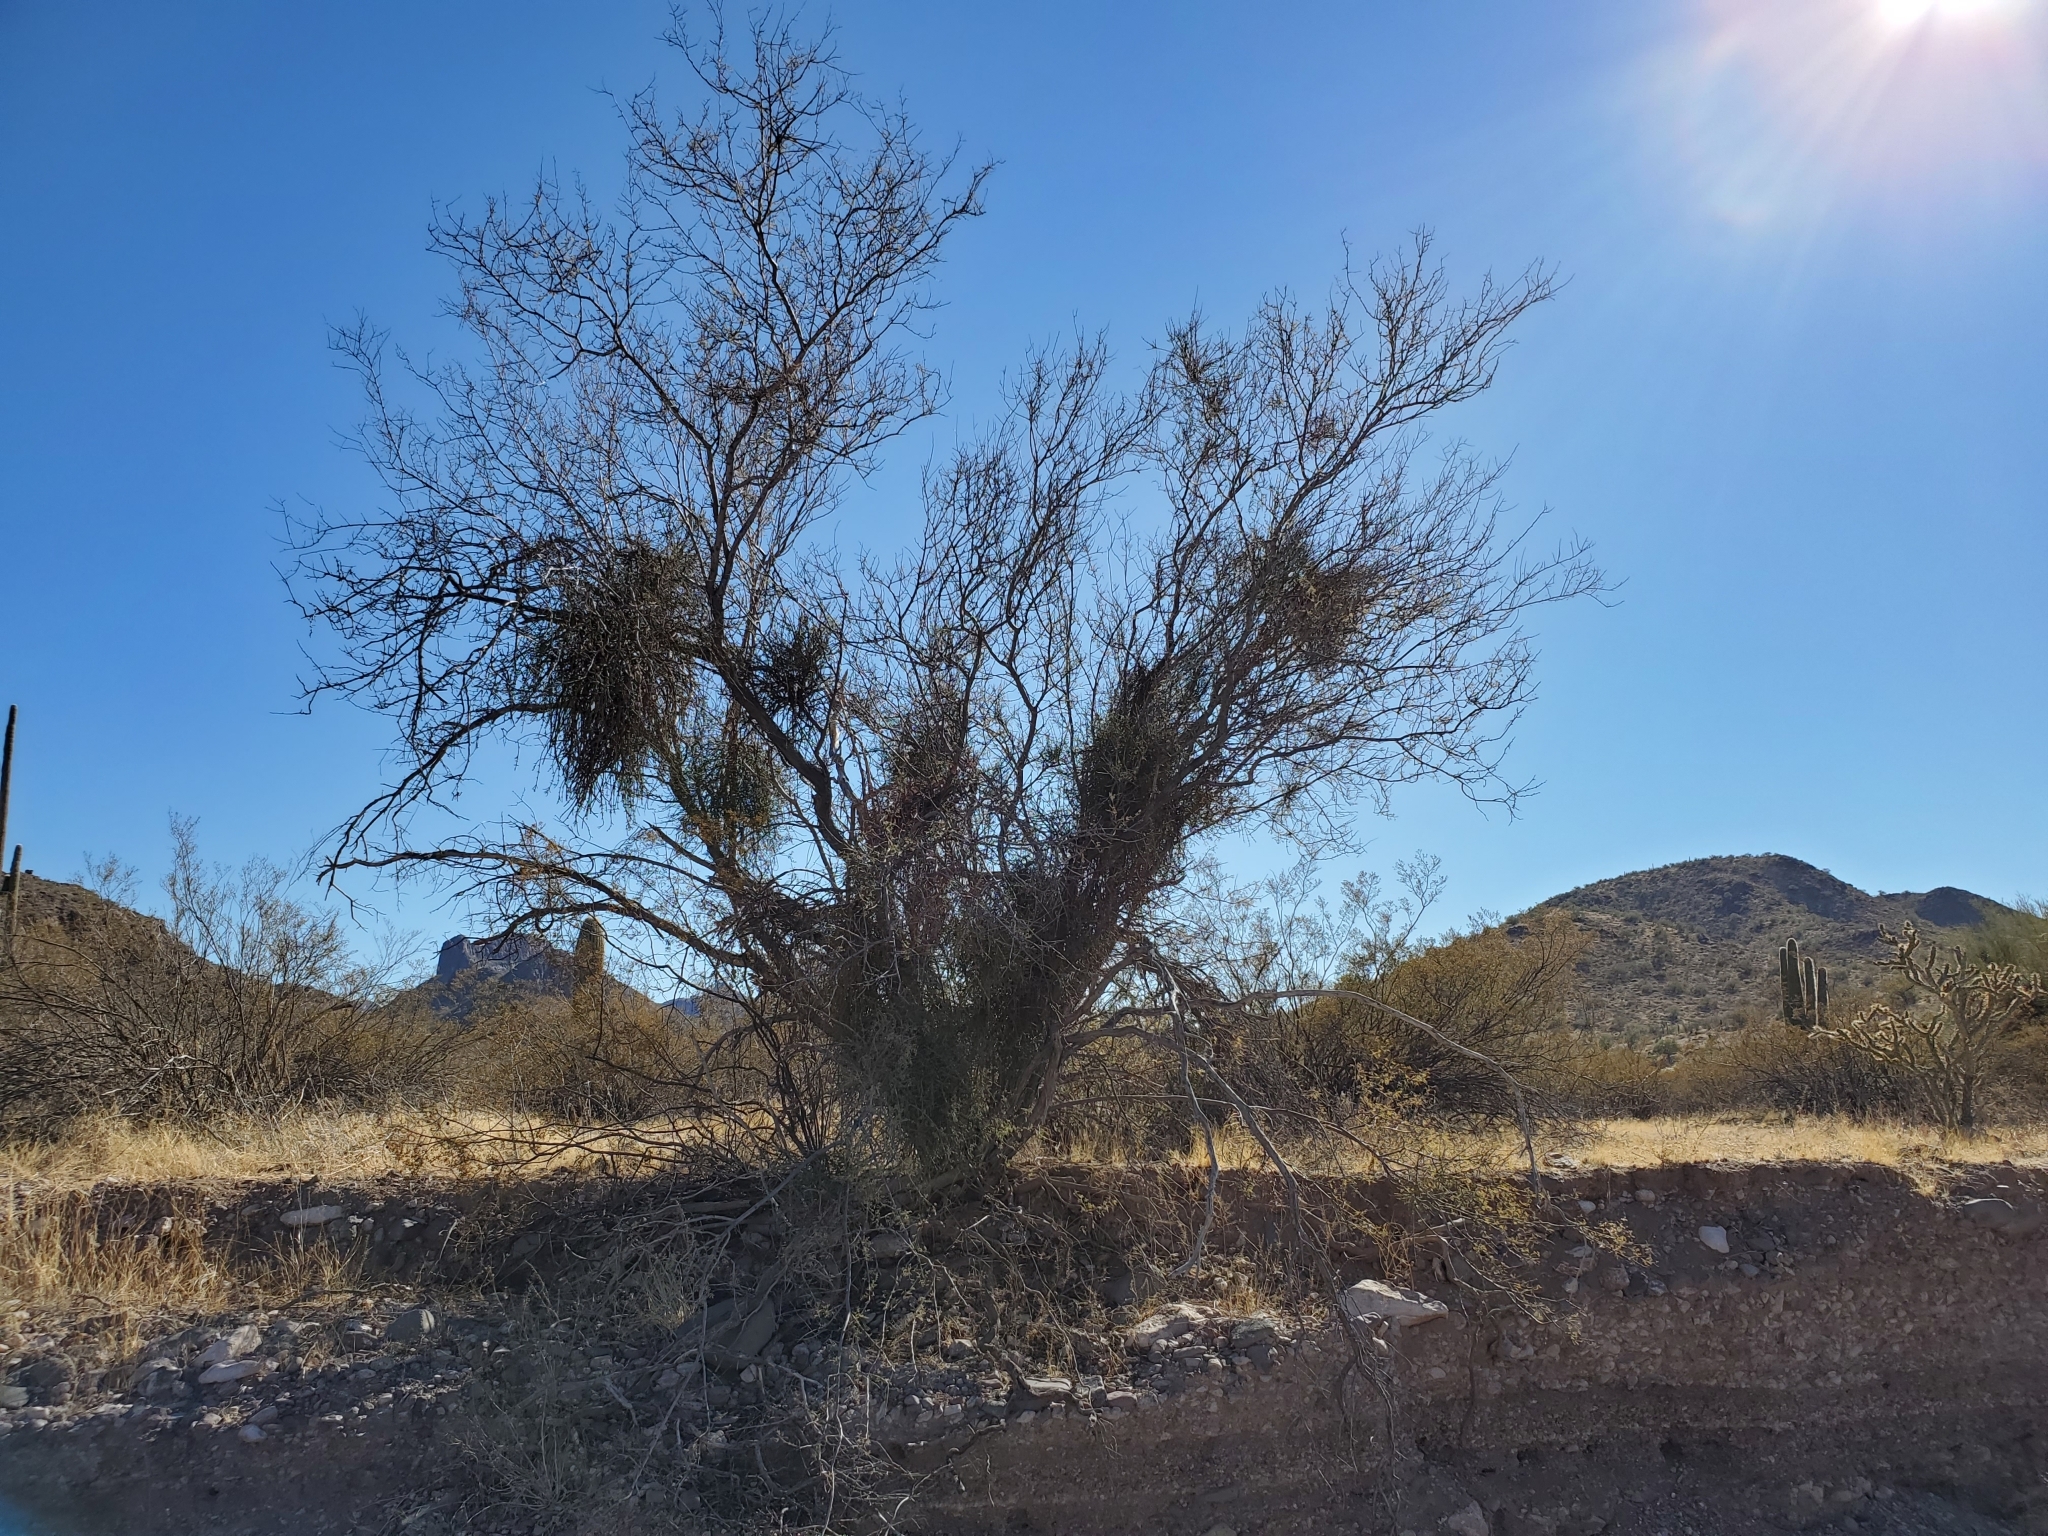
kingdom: Plantae
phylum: Tracheophyta
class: Magnoliopsida
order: Santalales
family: Viscaceae
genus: Phoradendron
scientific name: Phoradendron californicum
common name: Acacia mistletoe
